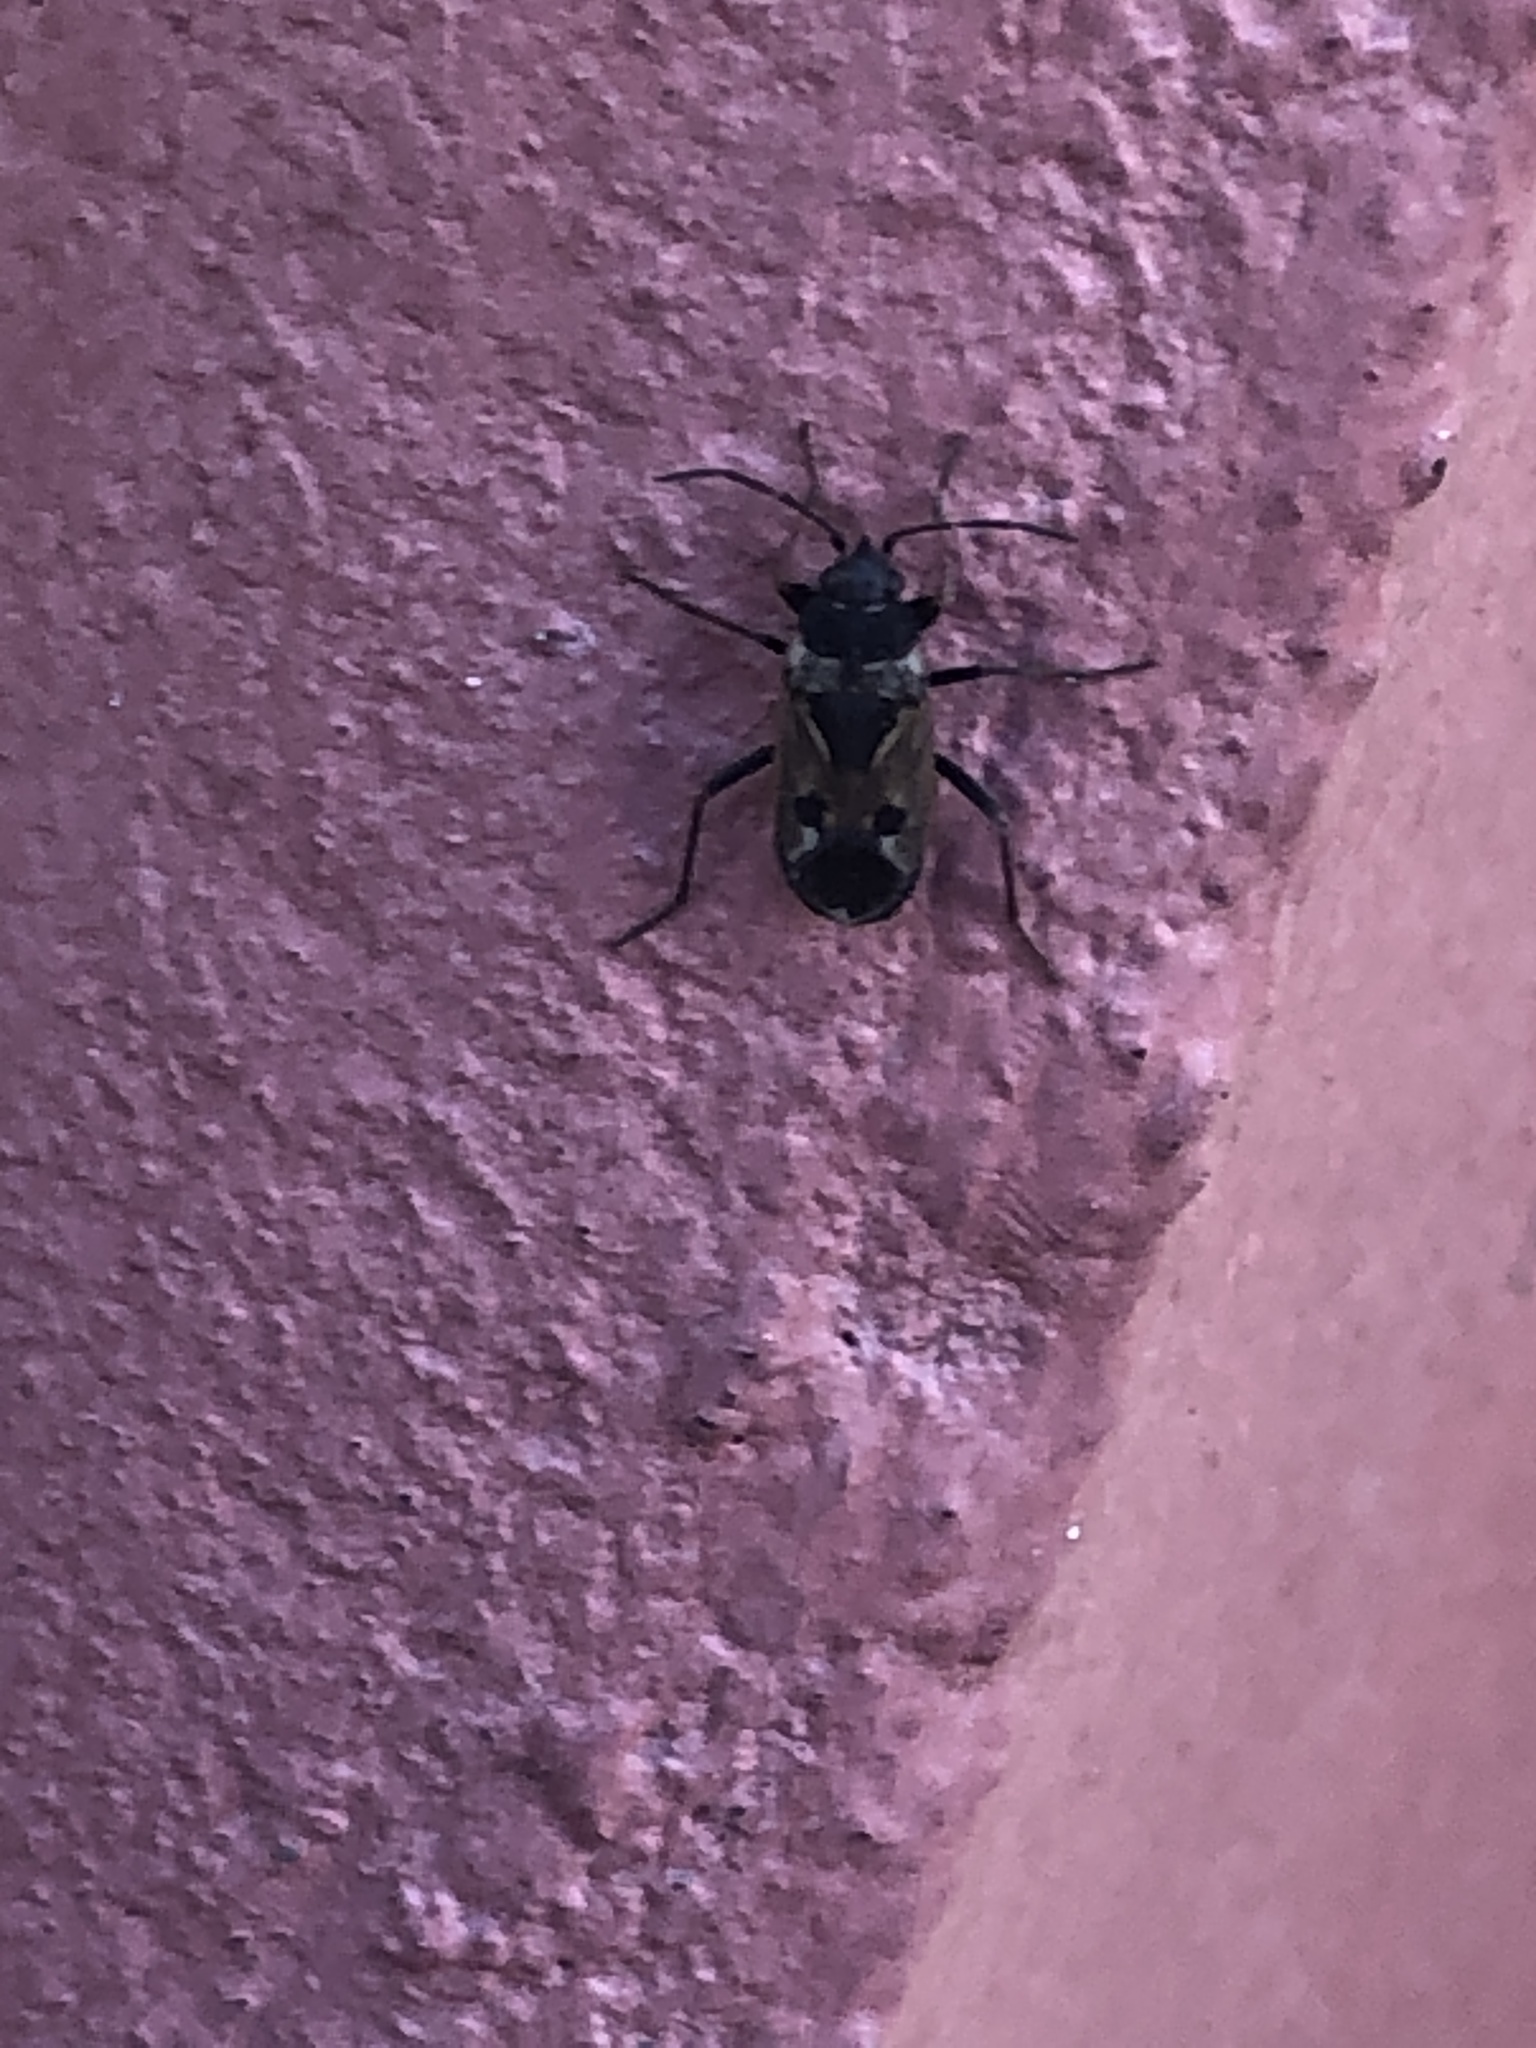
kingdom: Animalia
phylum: Arthropoda
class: Insecta
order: Hemiptera
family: Rhyparochromidae
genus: Rhyparochromus
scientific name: Rhyparochromus vulgaris
